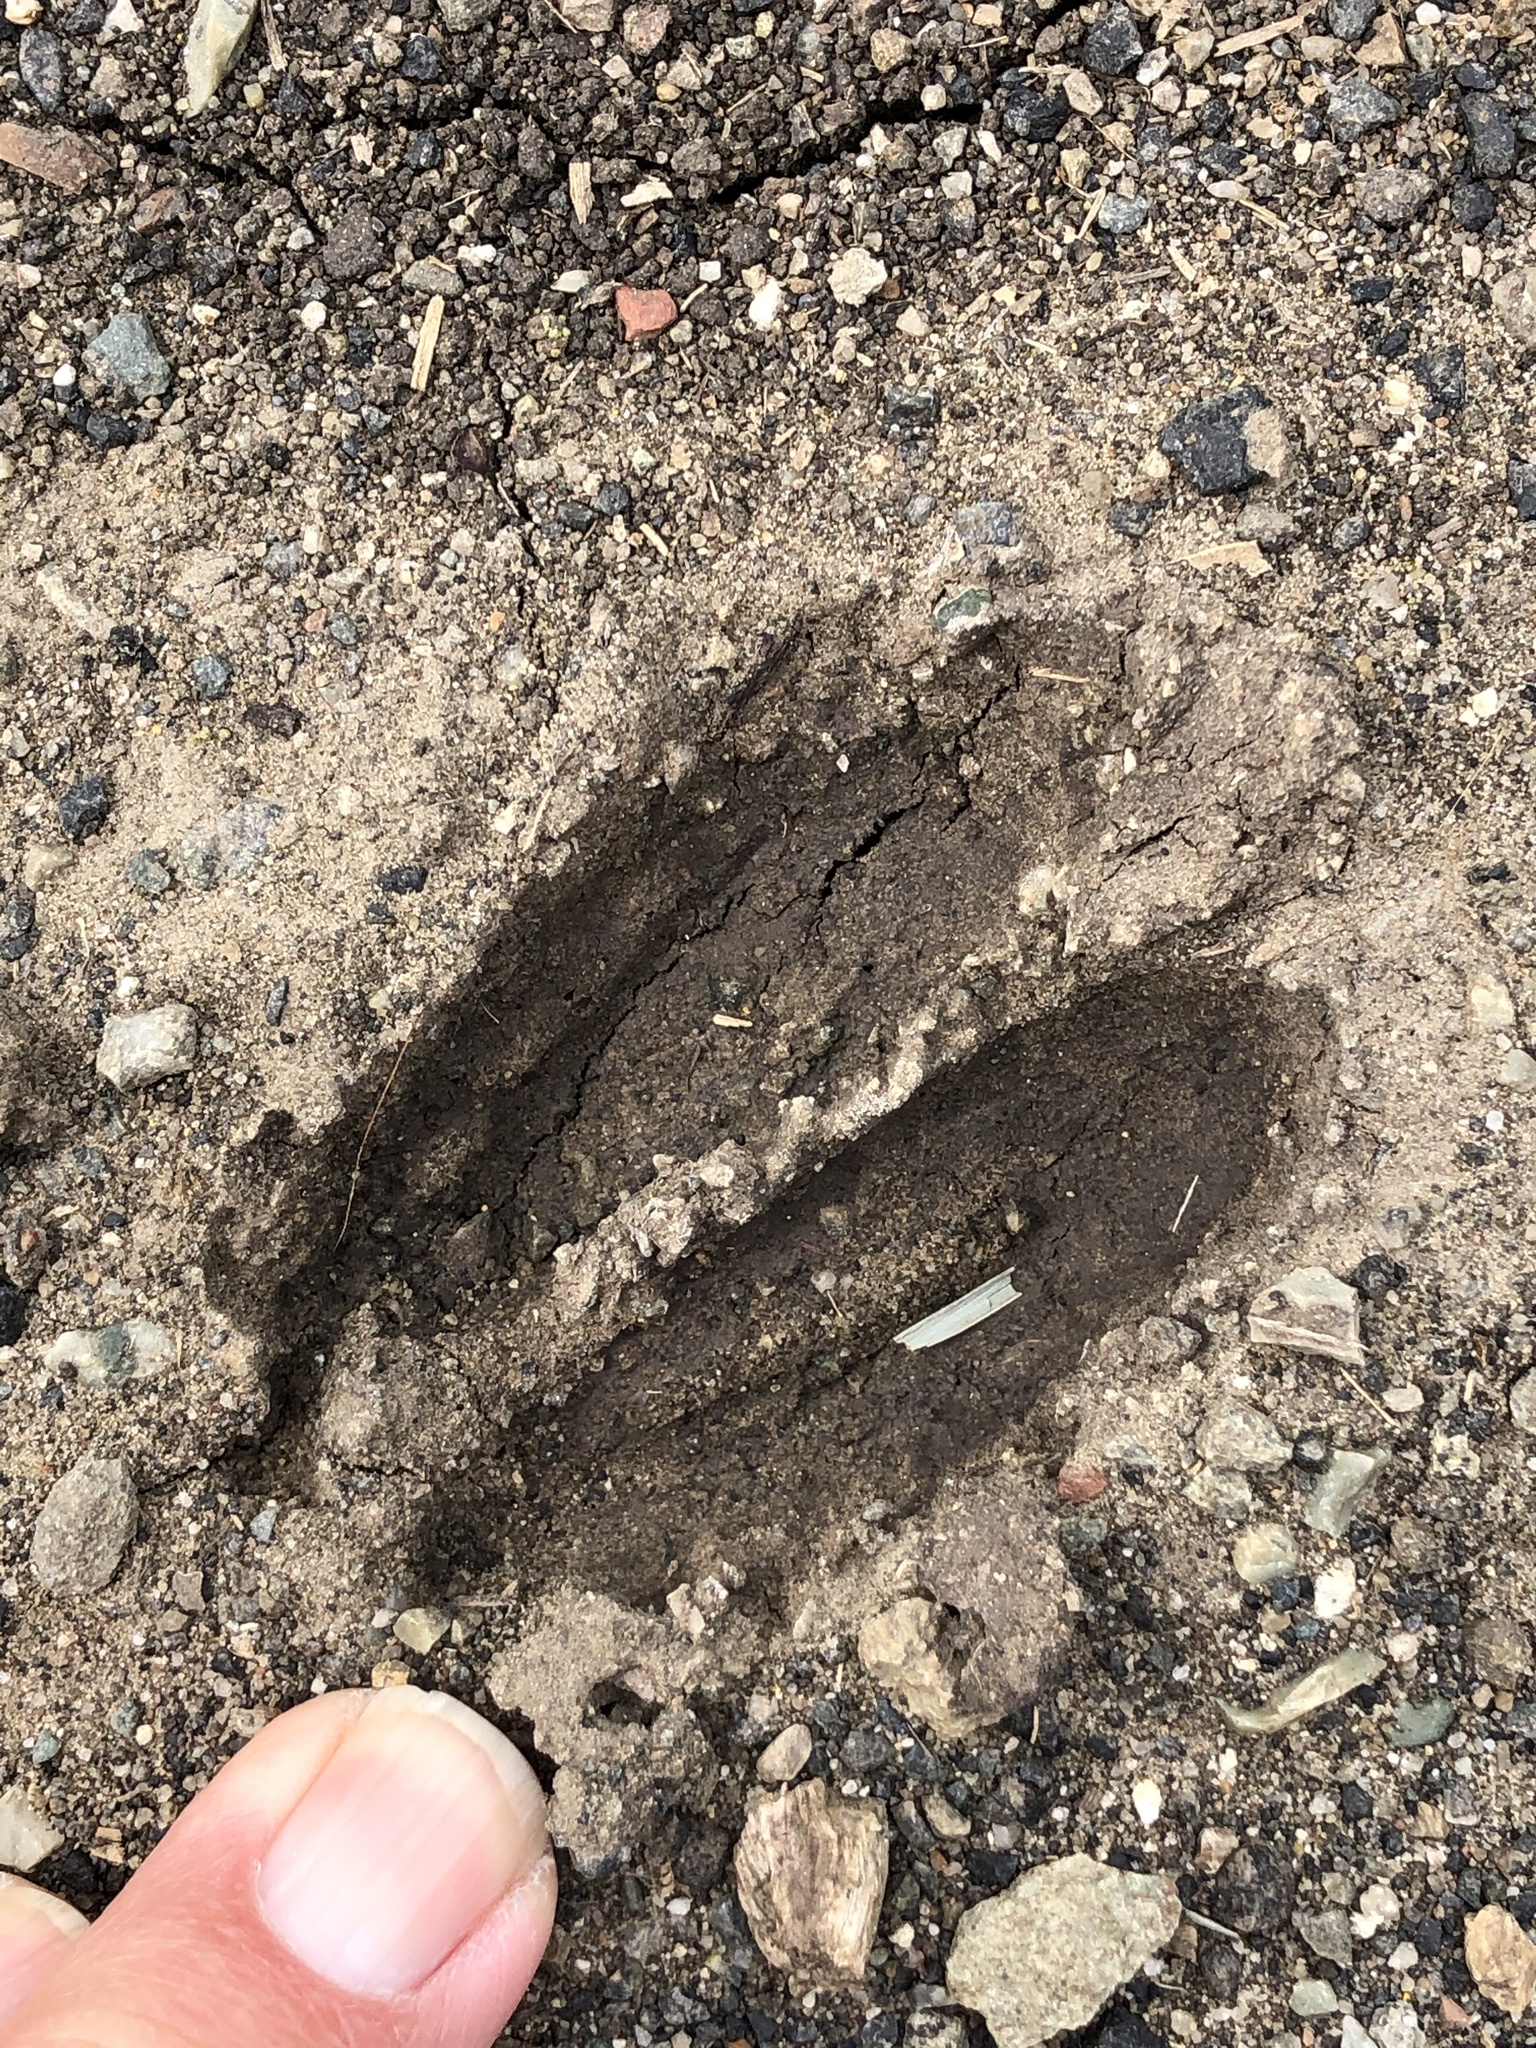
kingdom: Animalia
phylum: Chordata
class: Mammalia
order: Artiodactyla
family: Cervidae
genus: Odocoileus
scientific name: Odocoileus hemionus
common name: Mule deer
